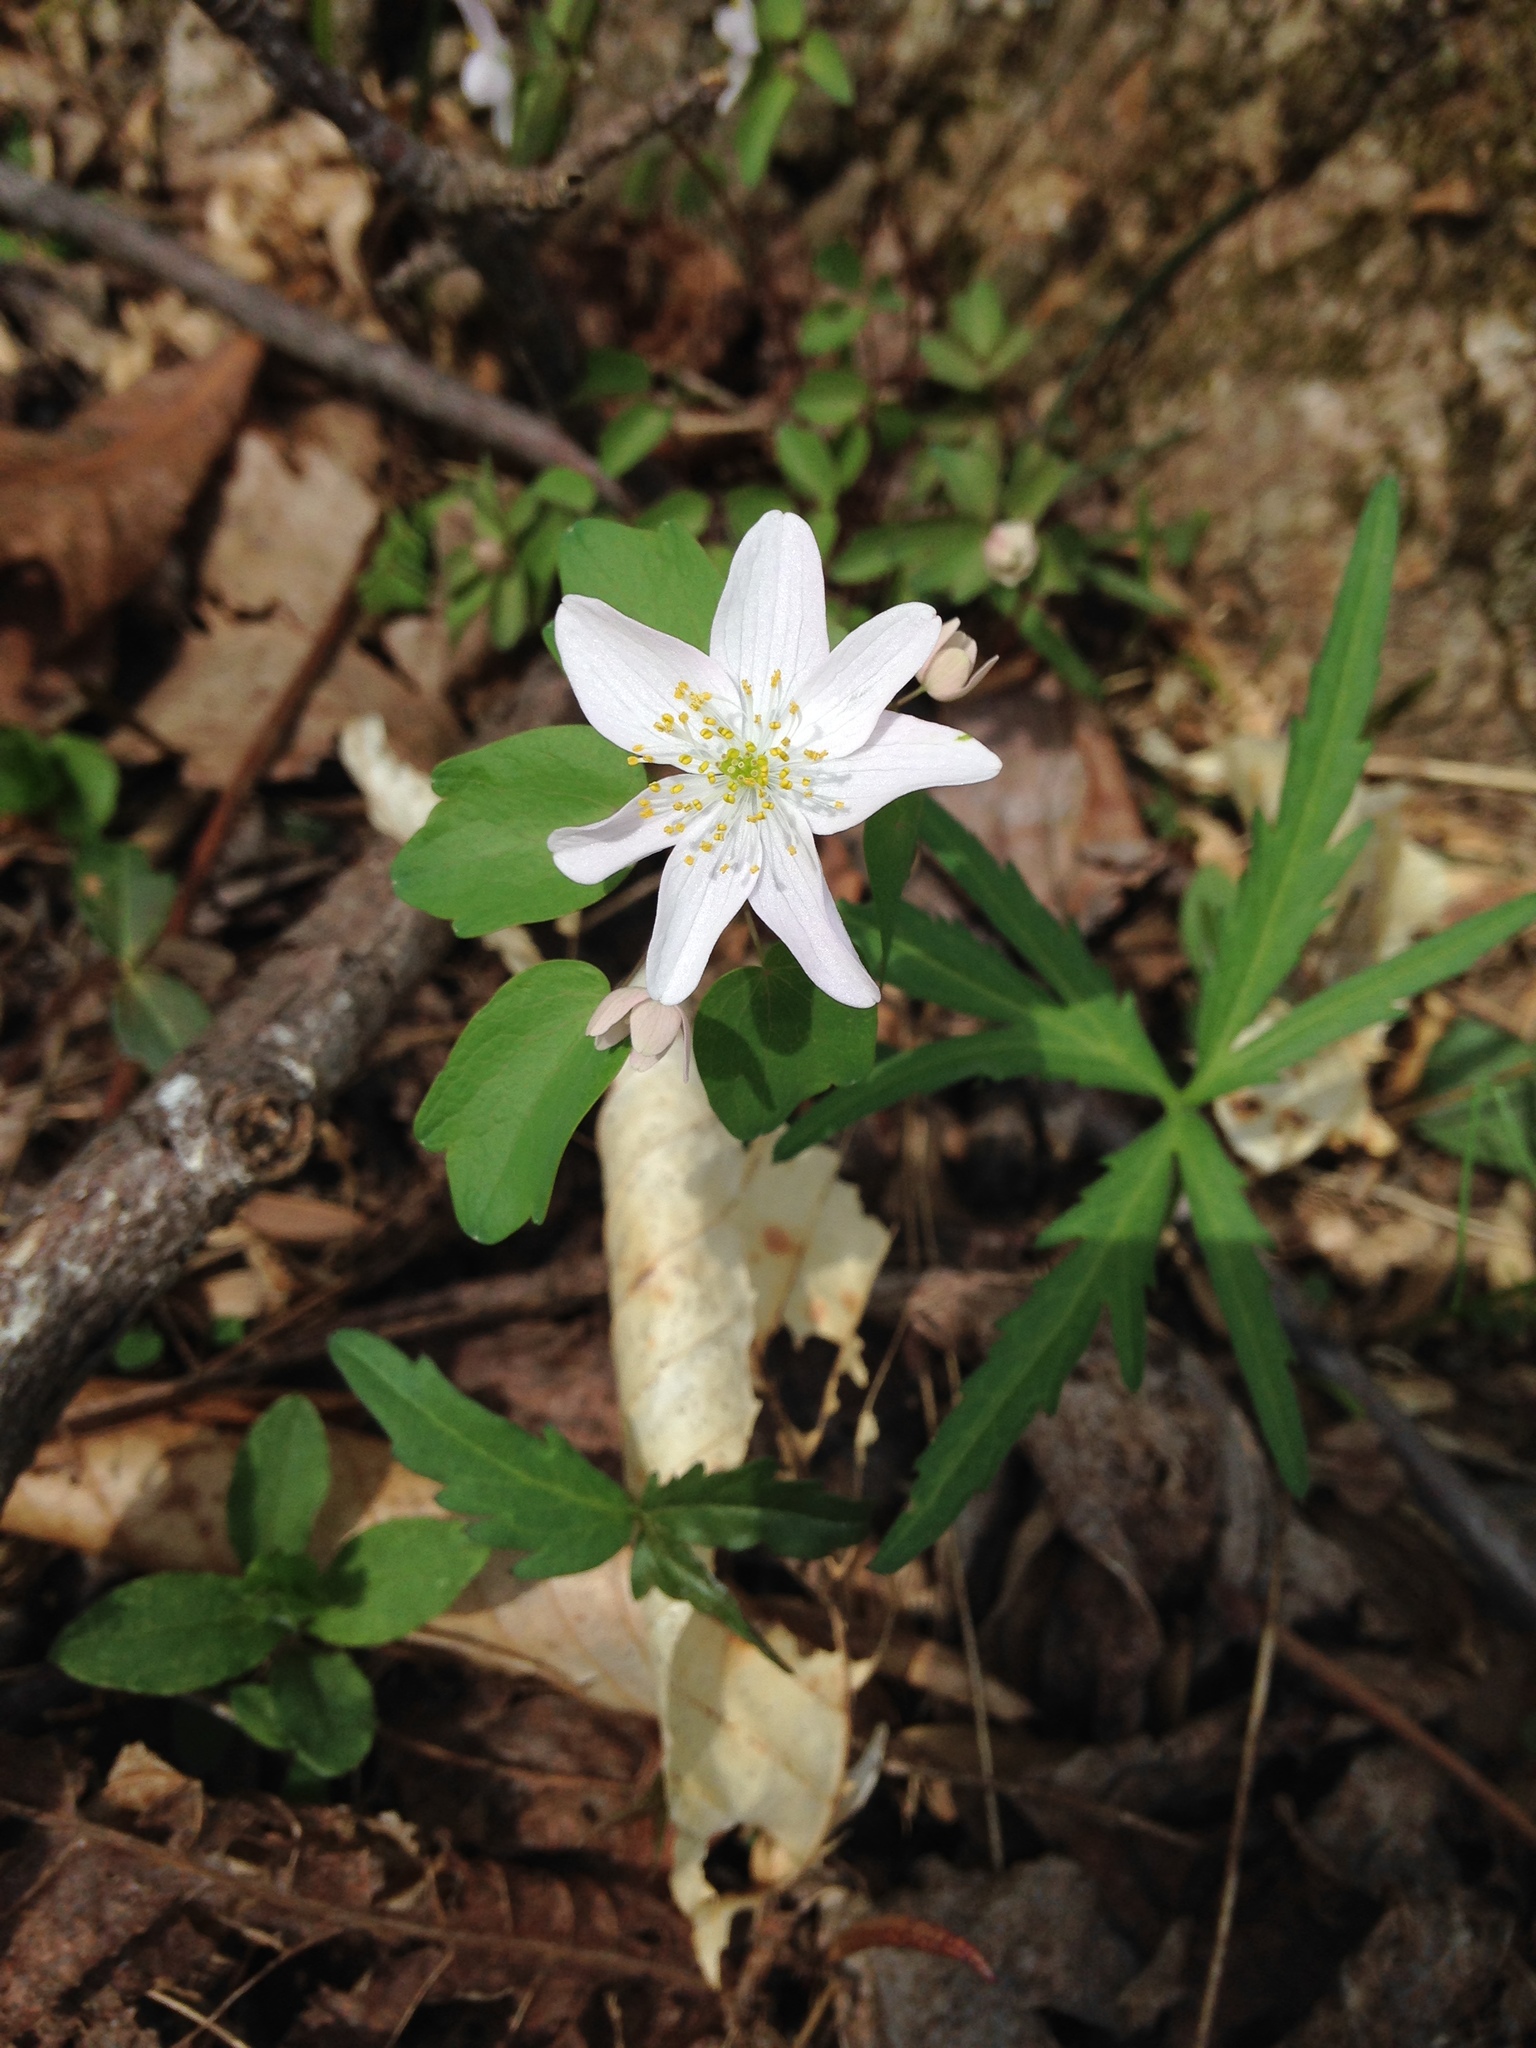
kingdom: Plantae
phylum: Tracheophyta
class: Magnoliopsida
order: Ranunculales
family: Ranunculaceae
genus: Thalictrum
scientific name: Thalictrum thalictroides
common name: Rue-anemone
